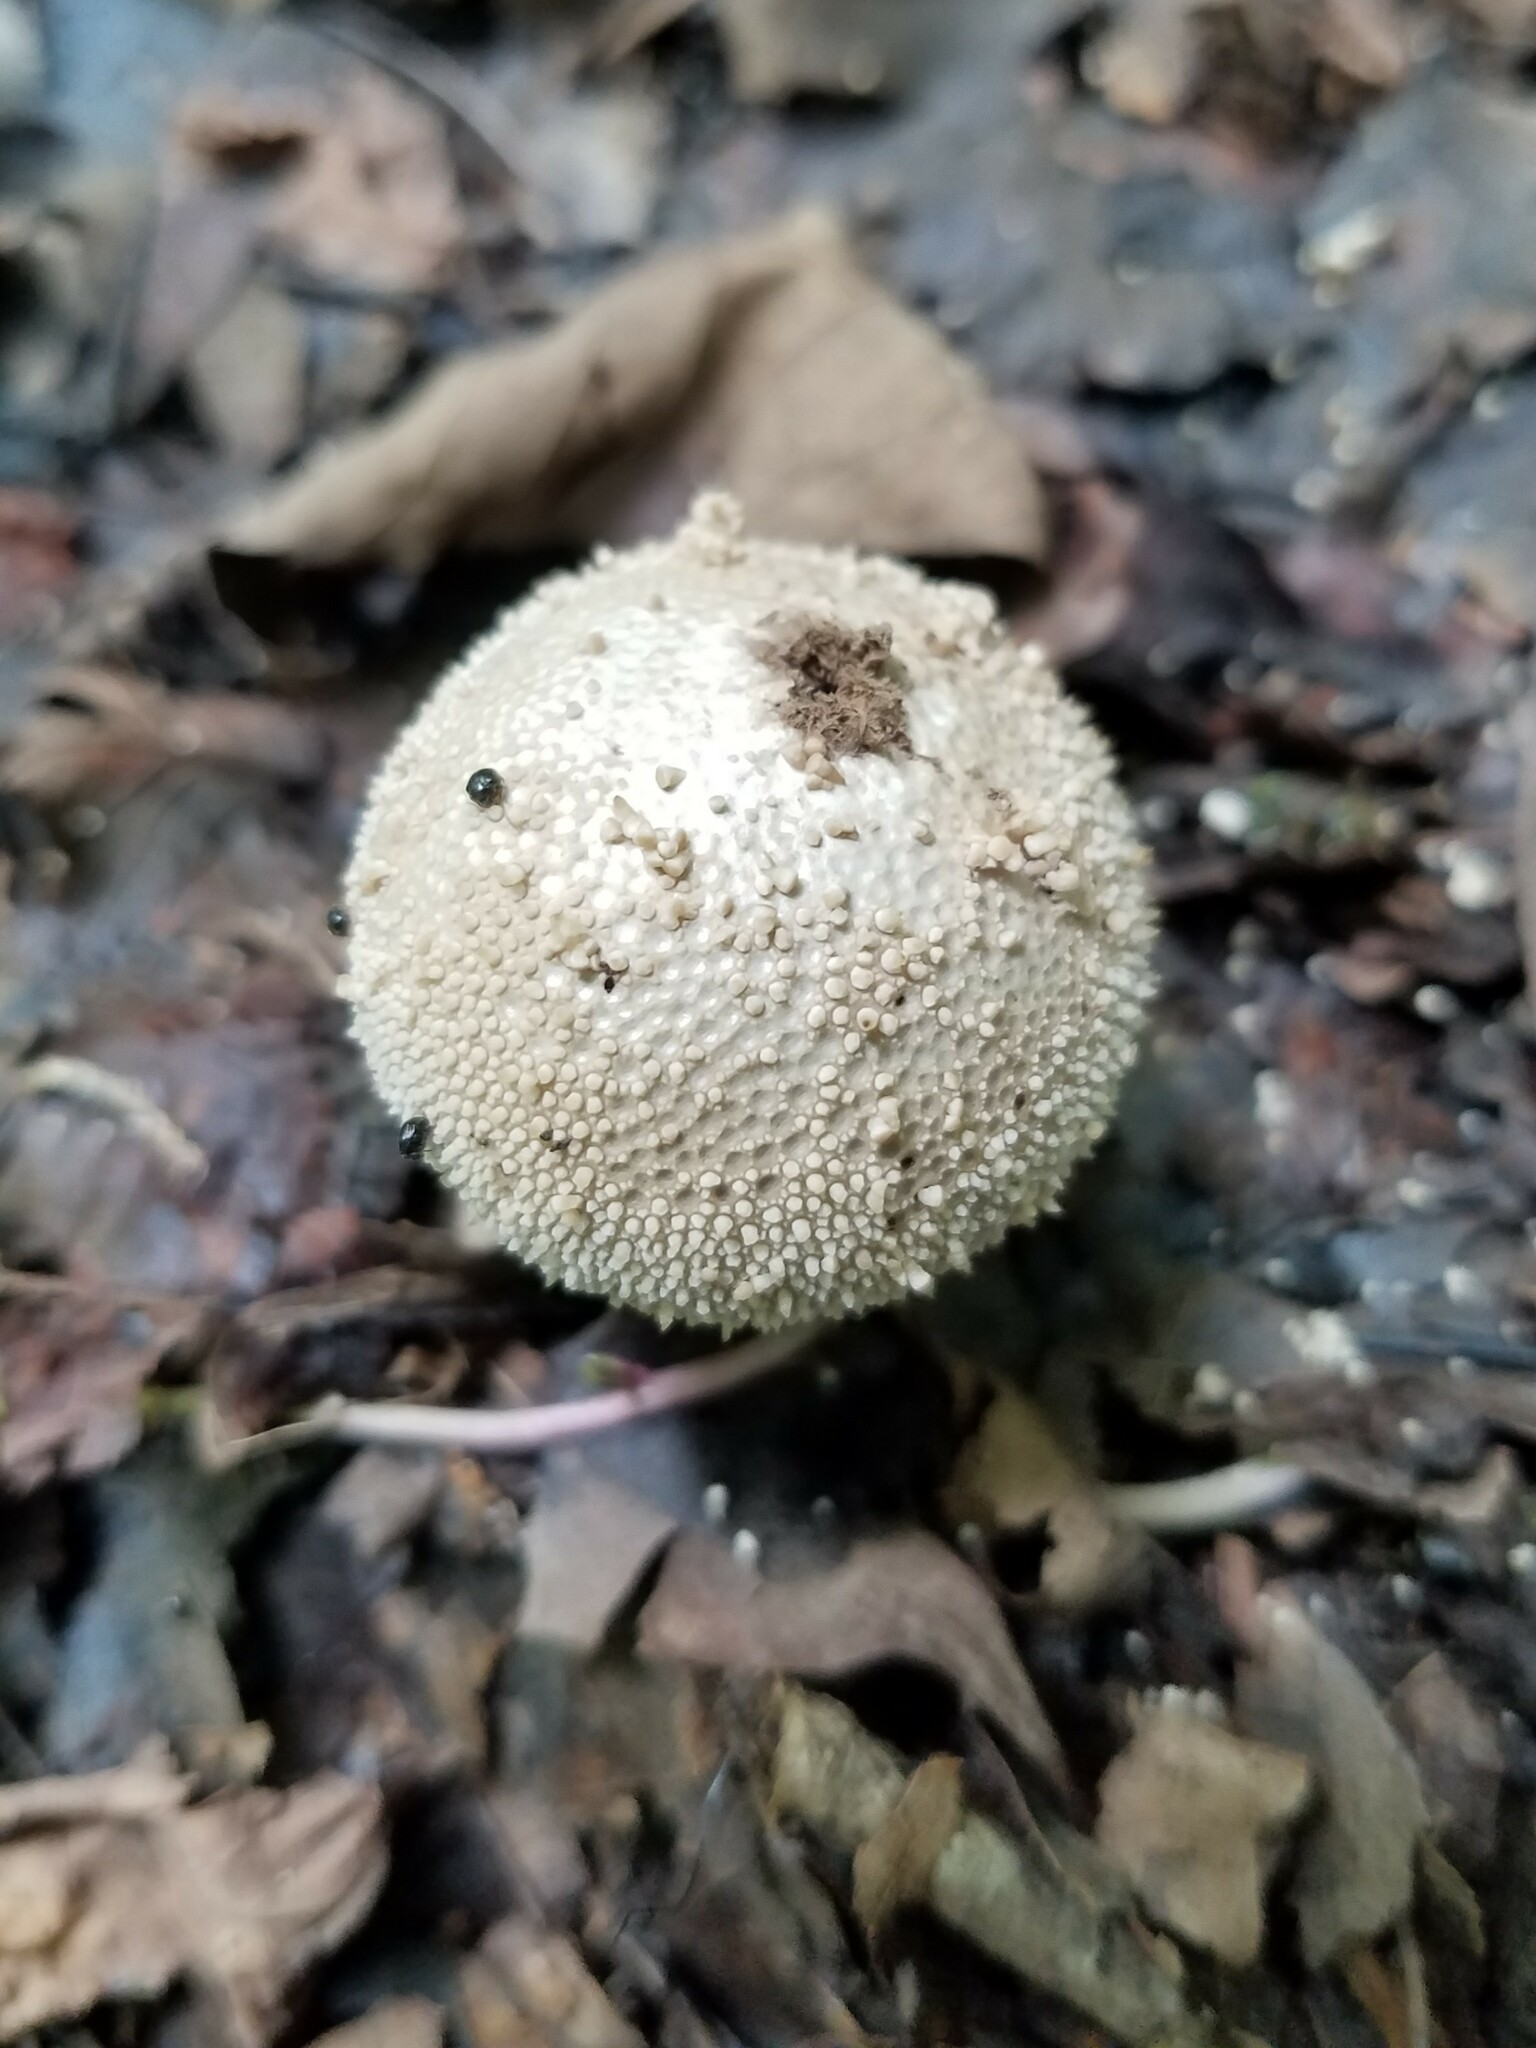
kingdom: Fungi
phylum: Basidiomycota
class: Agaricomycetes
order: Agaricales
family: Lycoperdaceae
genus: Lycoperdon
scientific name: Lycoperdon perlatum
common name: Common puffball
